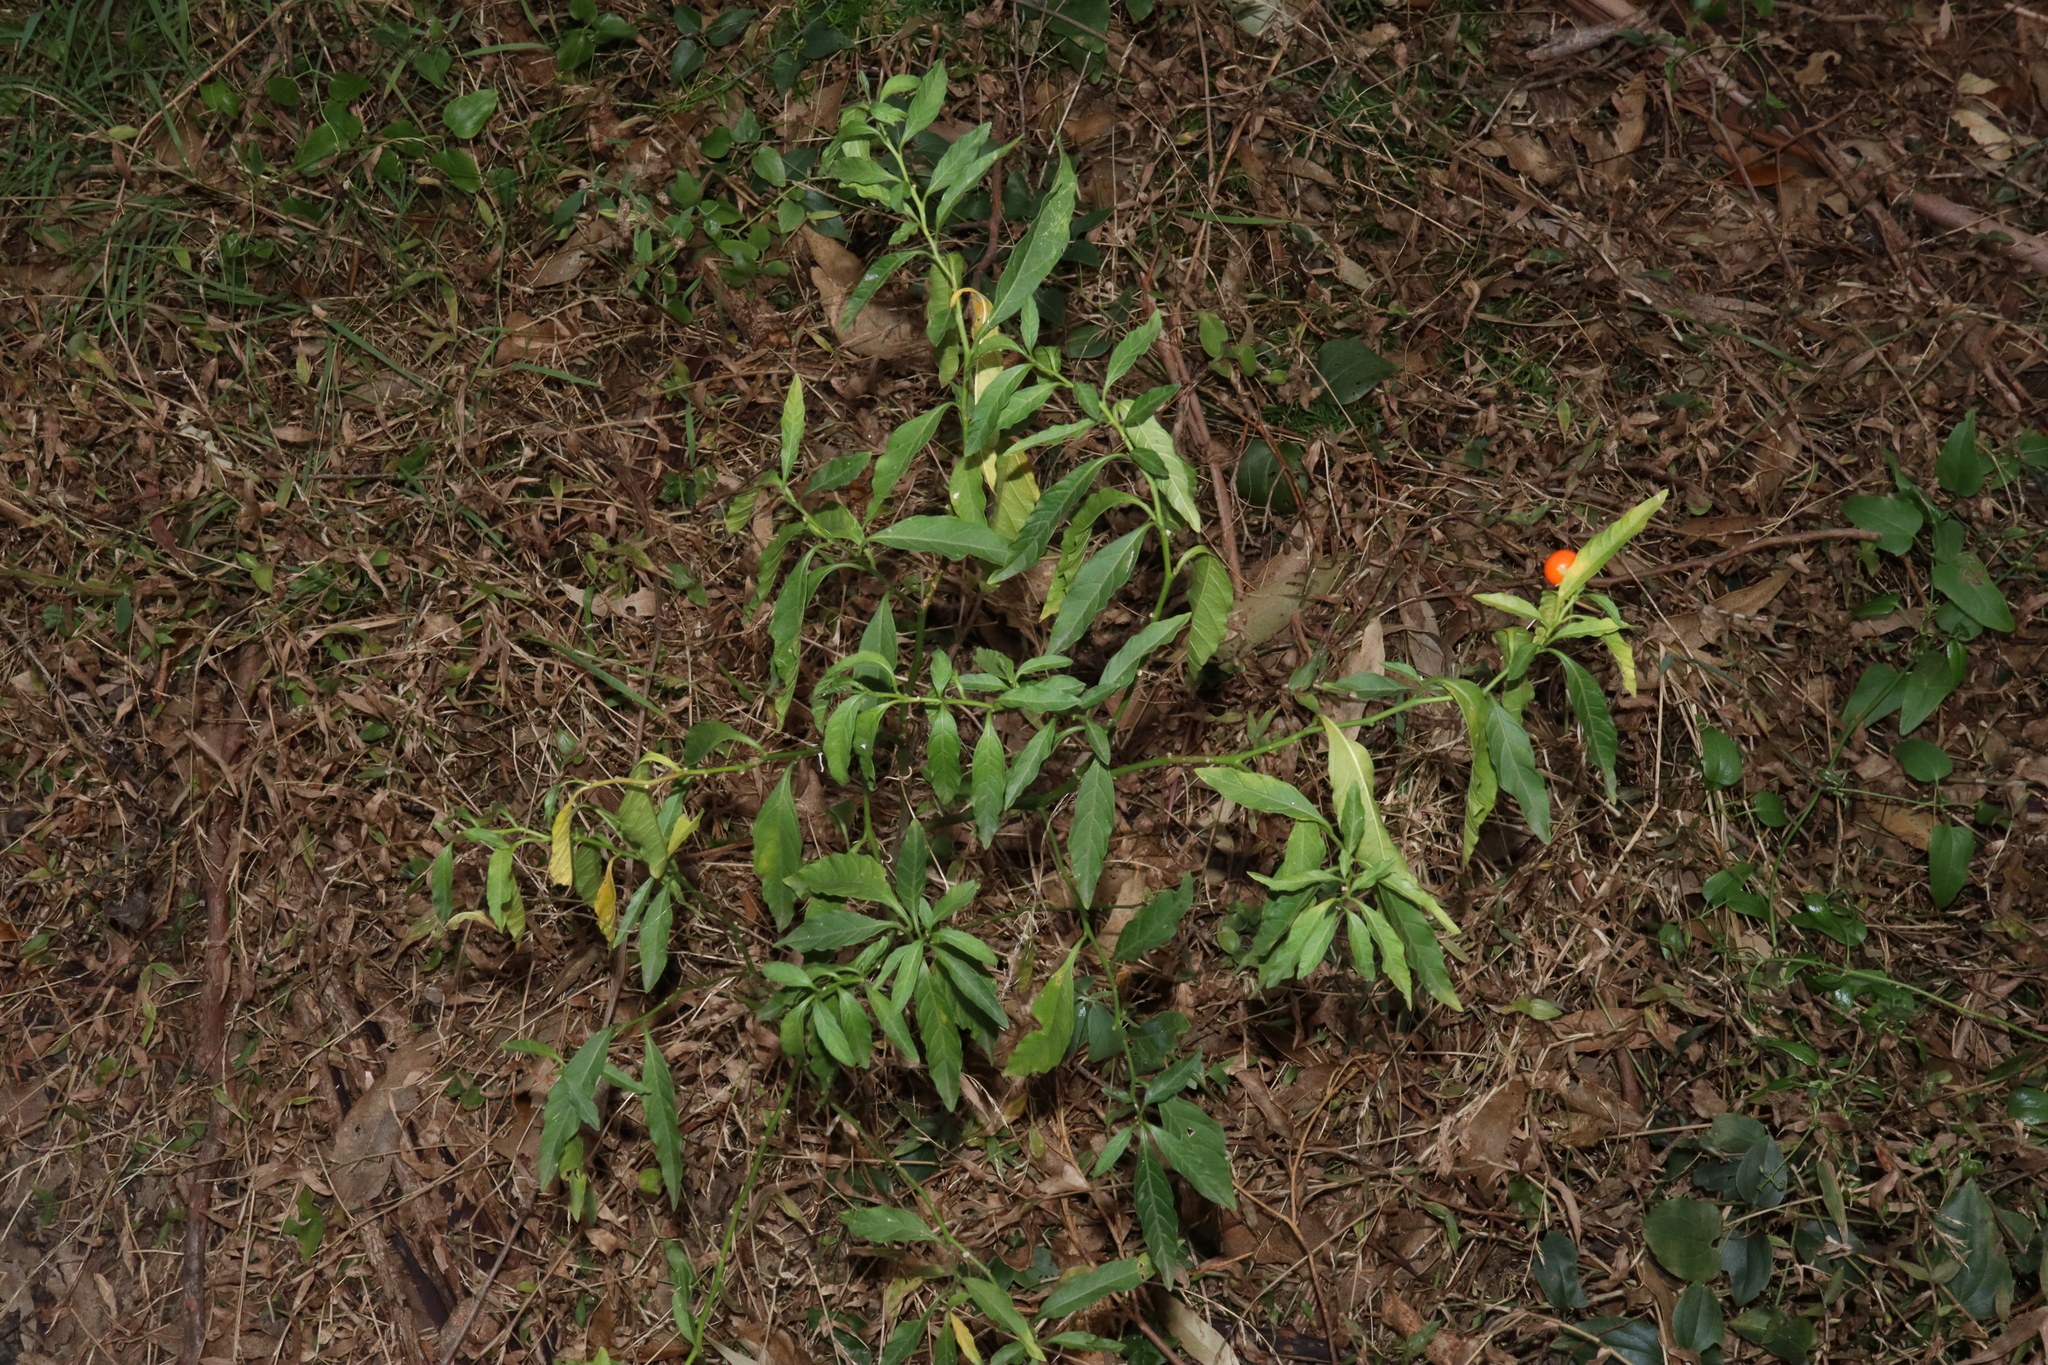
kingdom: Plantae
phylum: Tracheophyta
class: Magnoliopsida
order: Solanales
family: Solanaceae
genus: Solanum
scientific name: Solanum pseudocapsicum
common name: Jerusalem cherry
